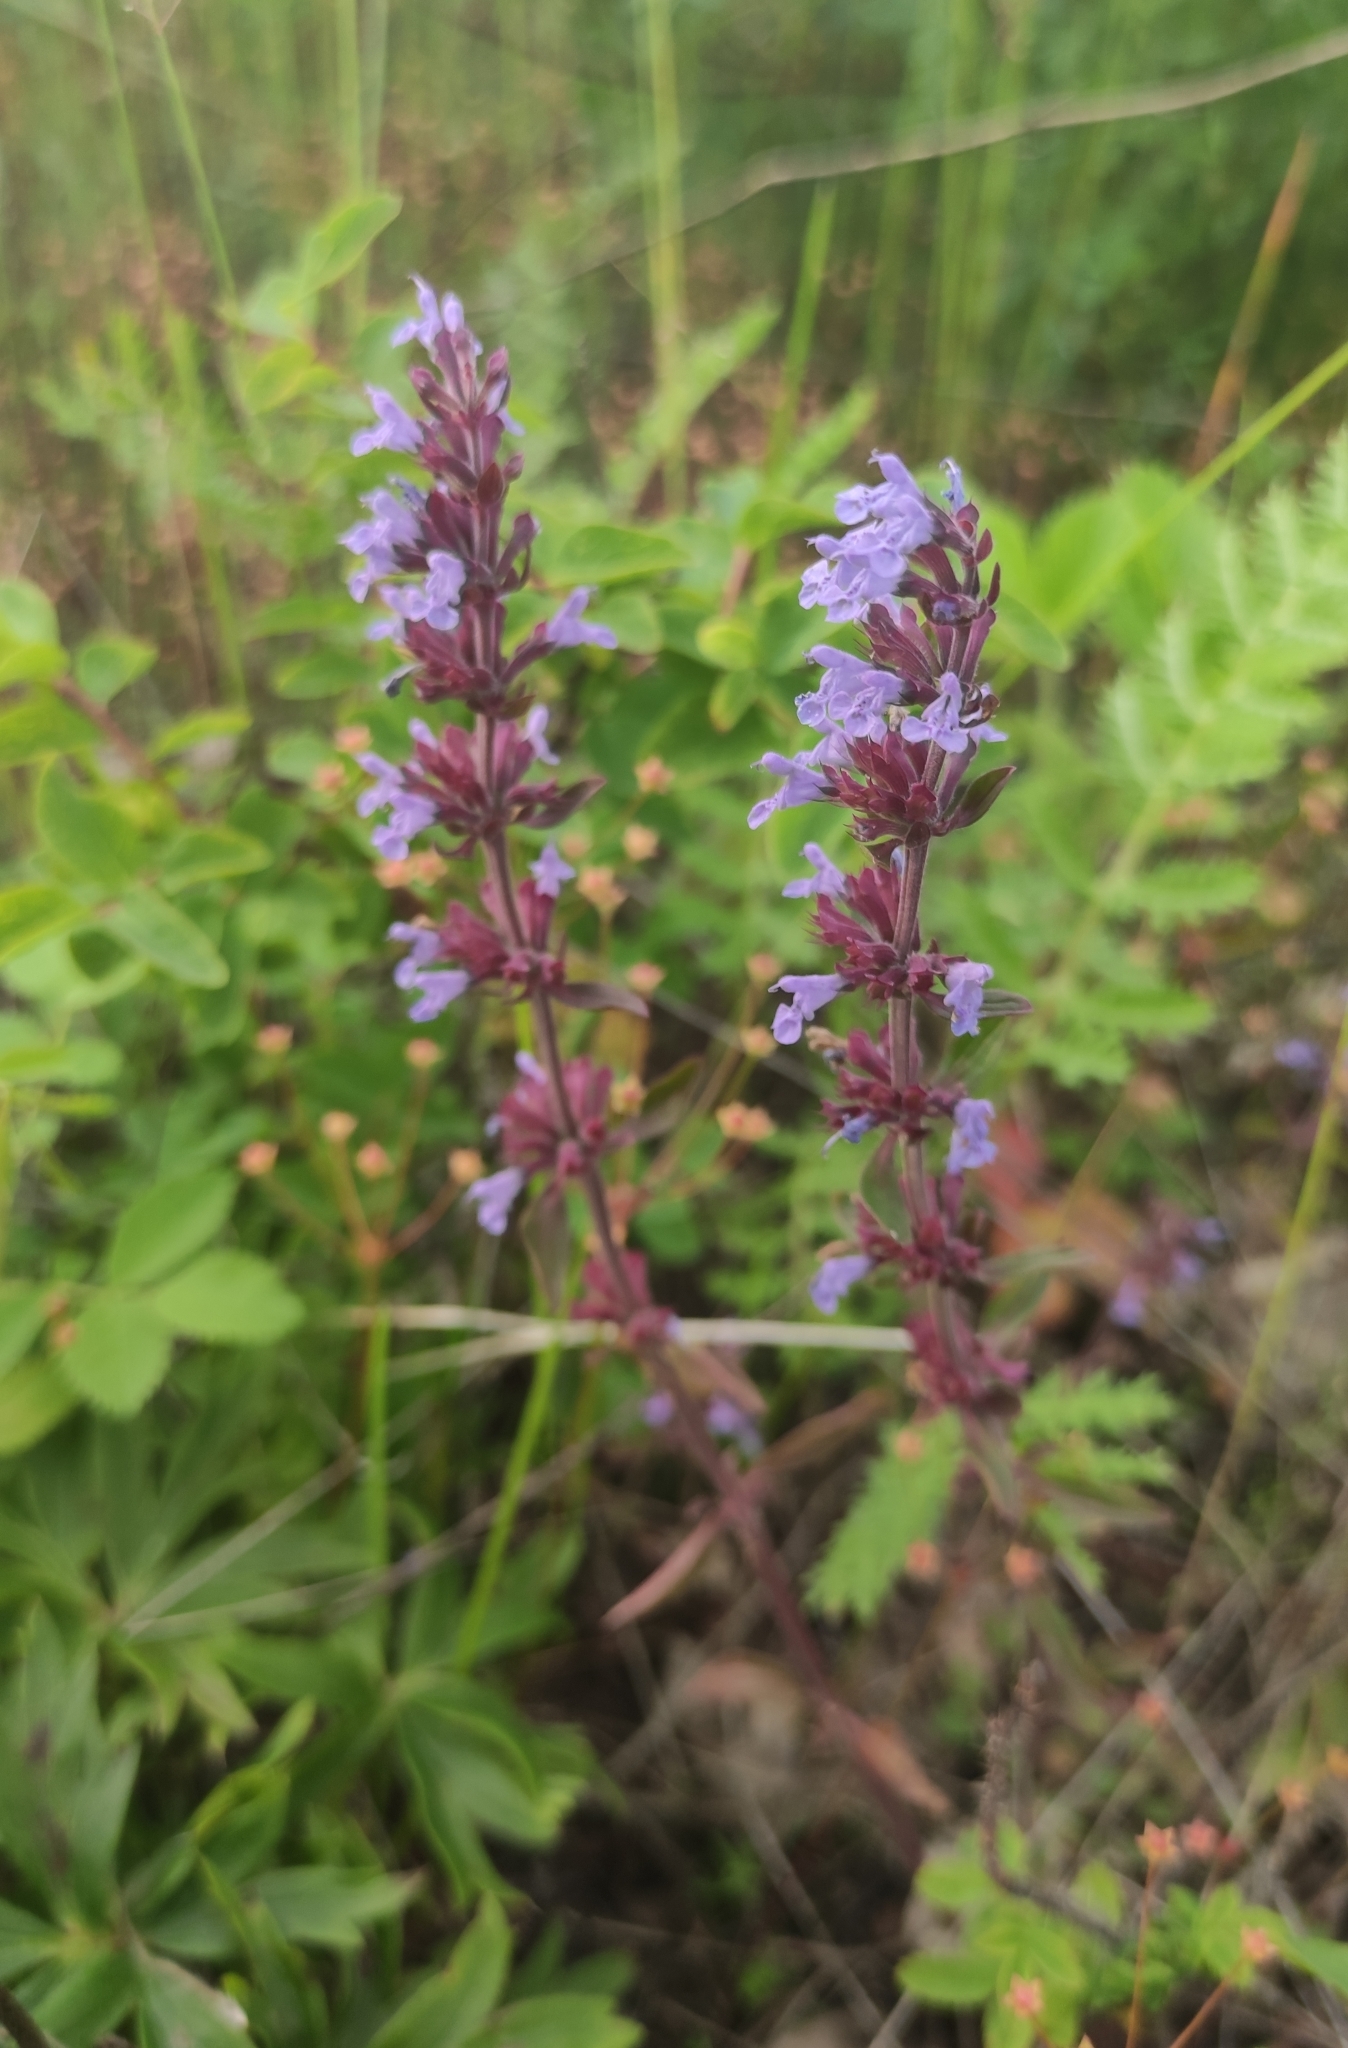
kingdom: Plantae
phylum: Tracheophyta
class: Magnoliopsida
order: Lamiales
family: Lamiaceae
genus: Dracocephalum
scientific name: Dracocephalum nutans
